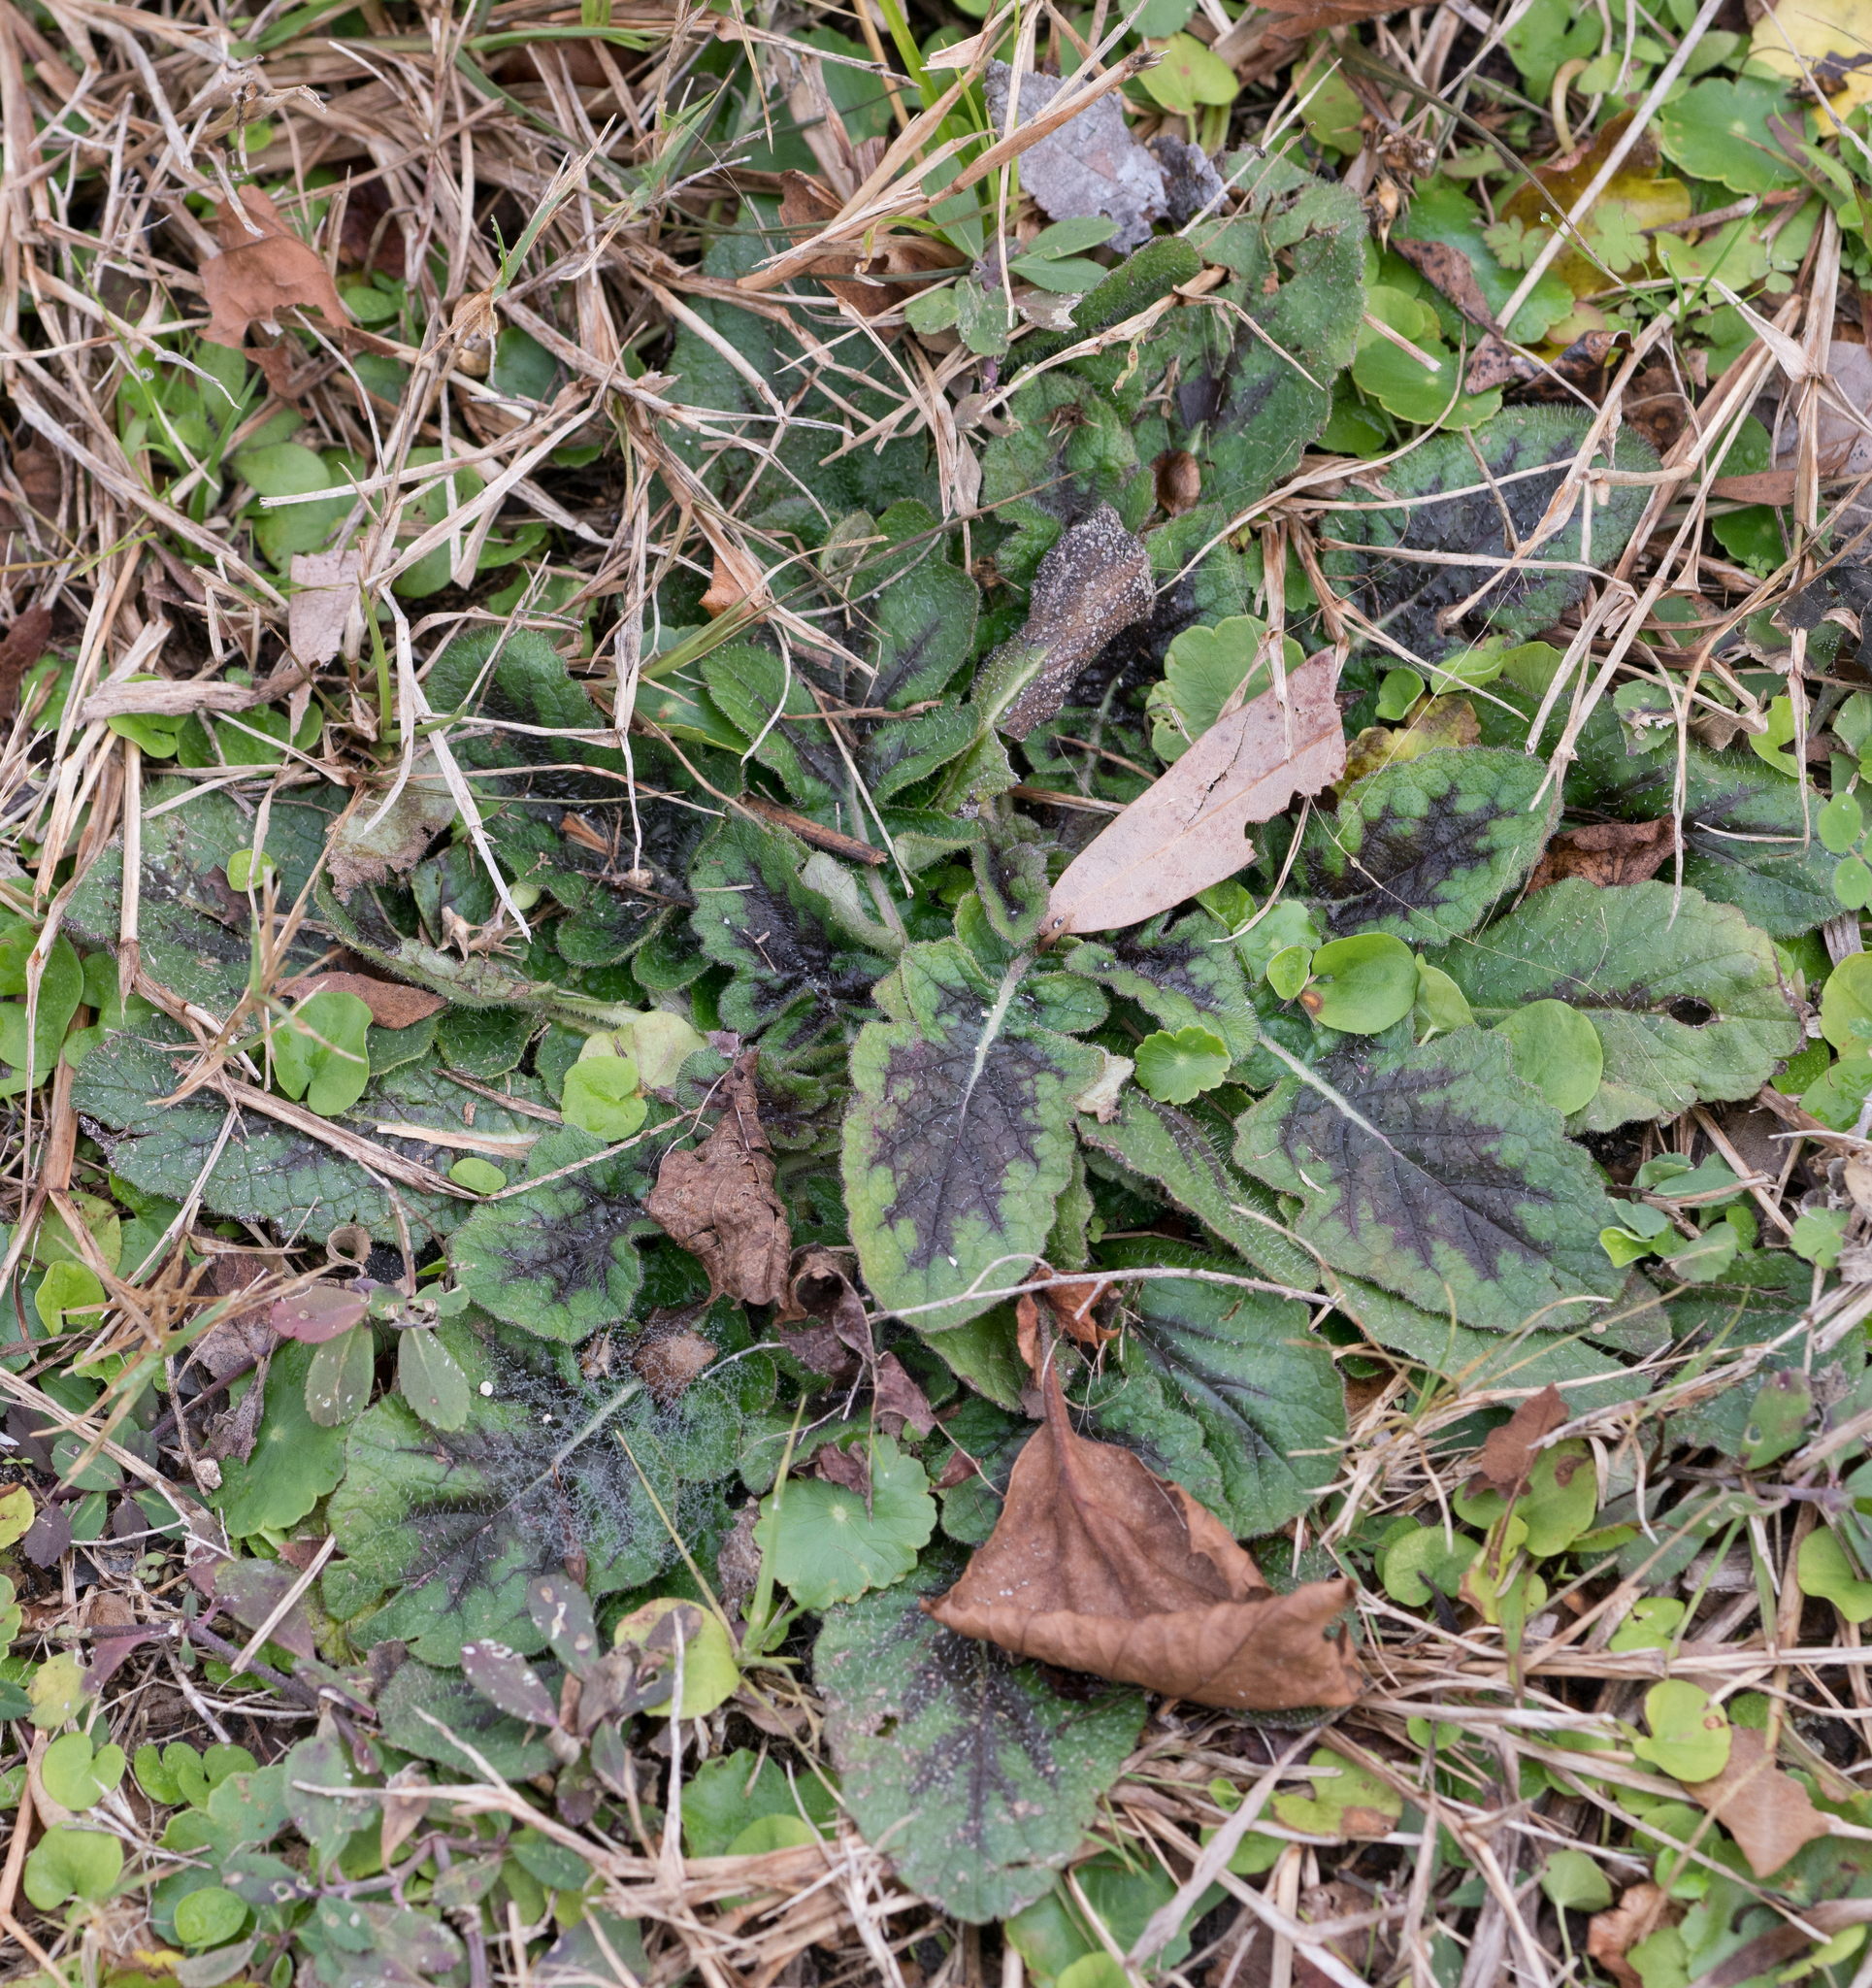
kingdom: Plantae
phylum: Tracheophyta
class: Magnoliopsida
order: Lamiales
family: Lamiaceae
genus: Salvia
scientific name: Salvia lyrata
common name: Cancerweed
